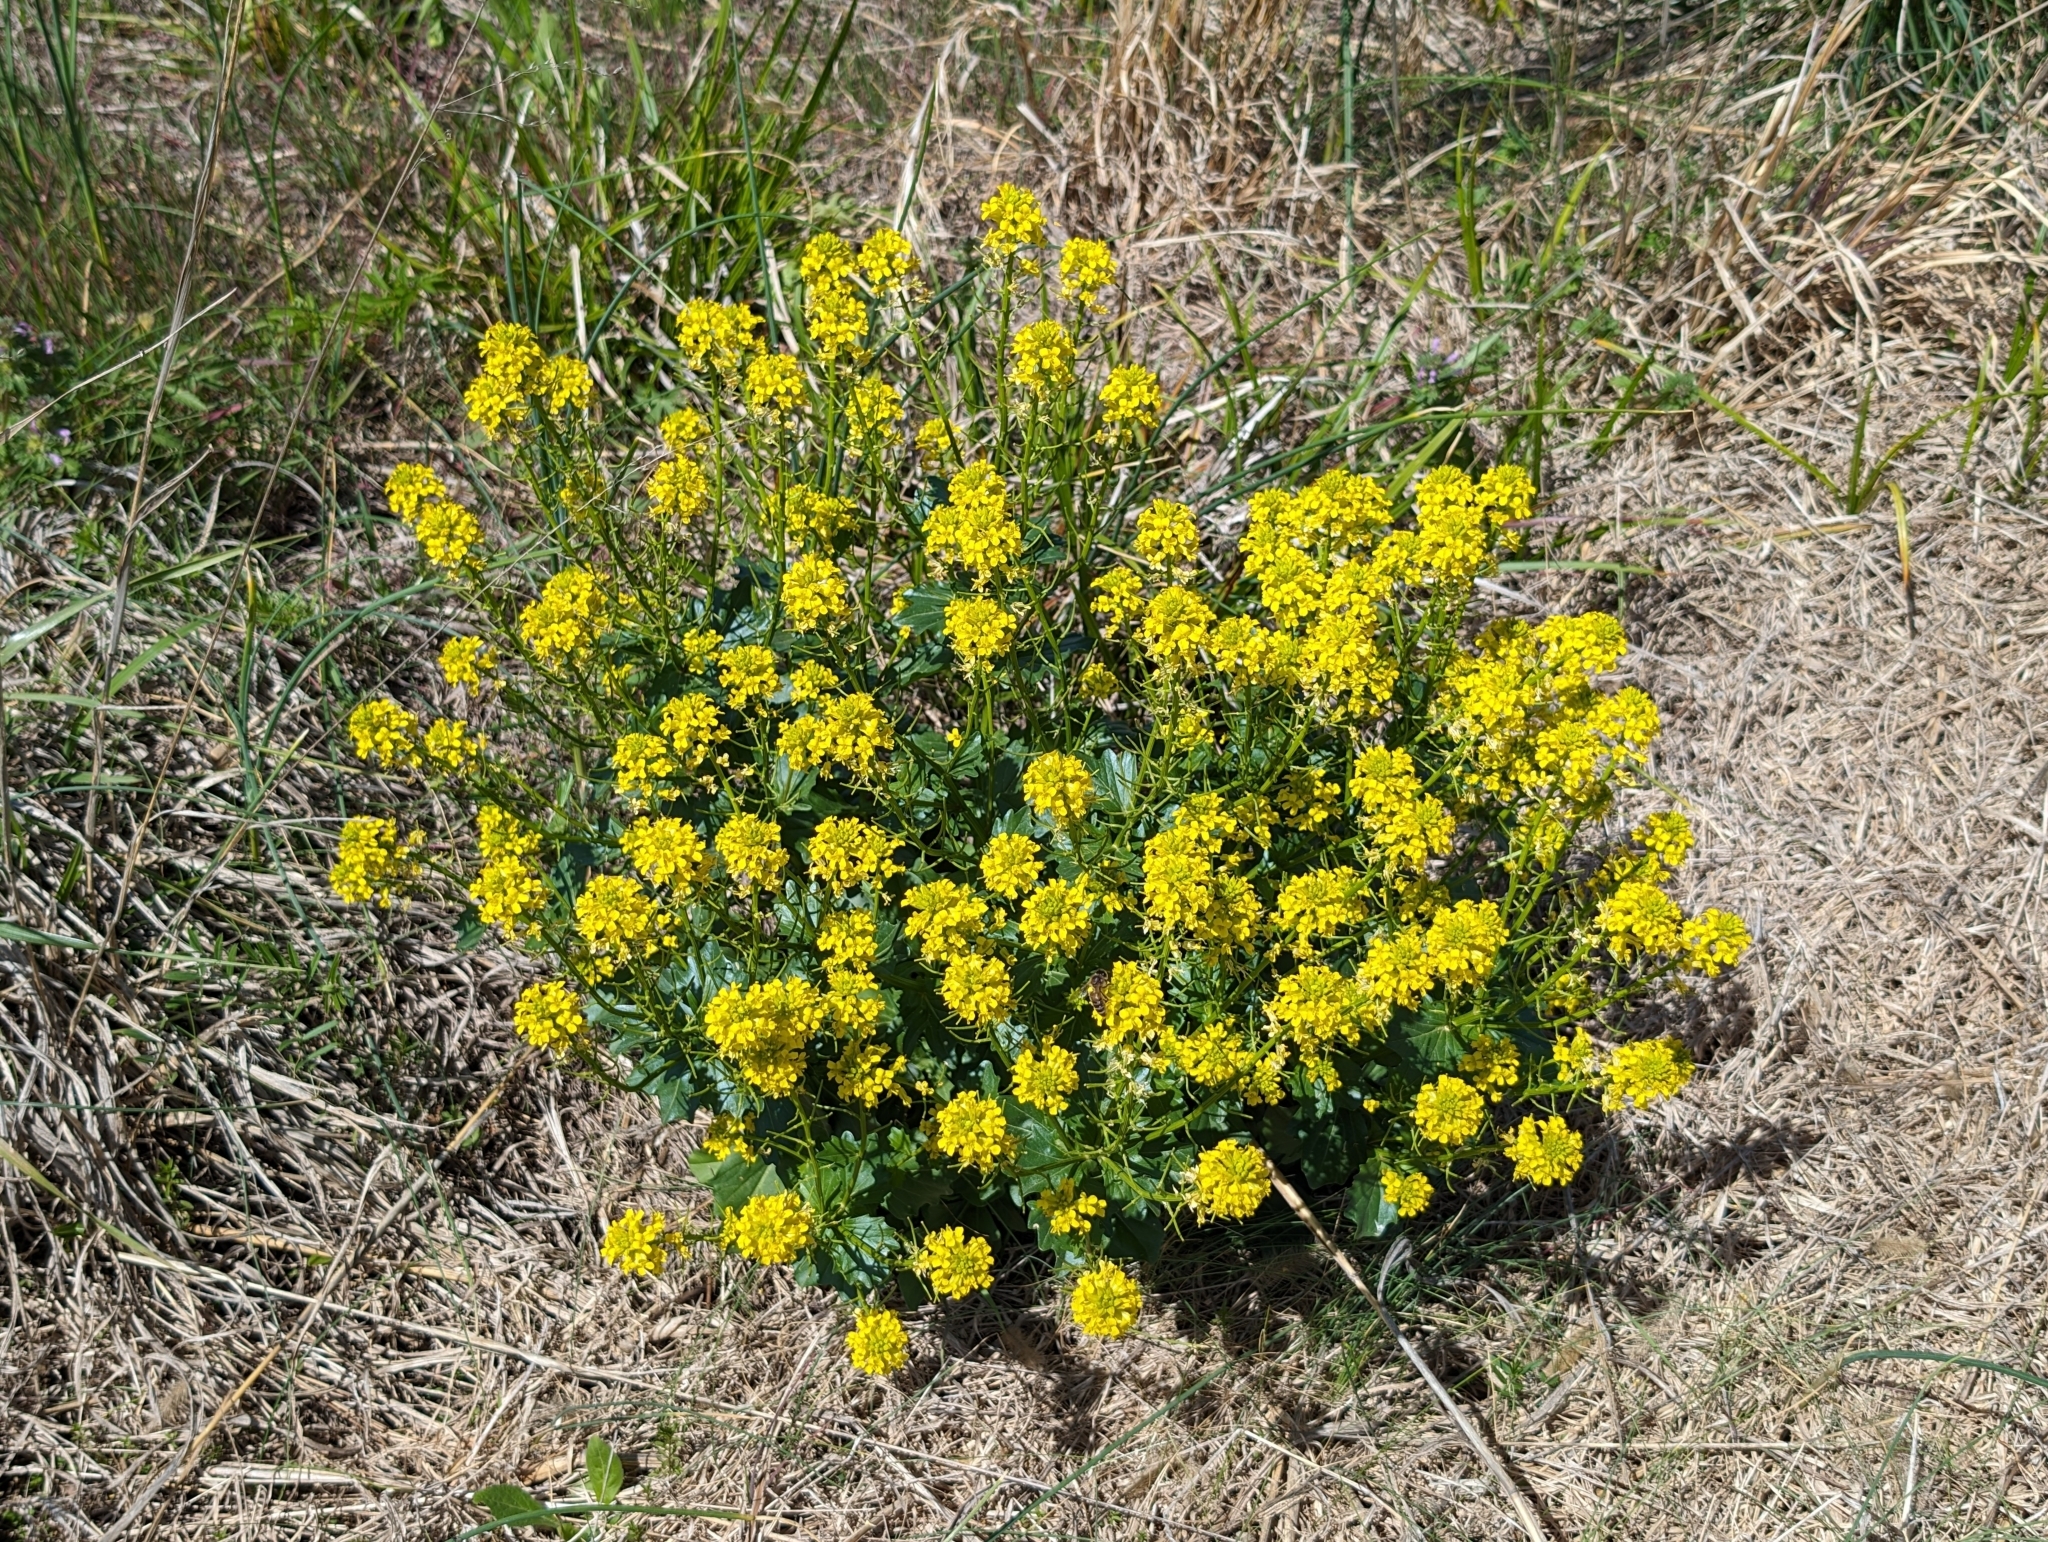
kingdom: Plantae
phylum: Tracheophyta
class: Magnoliopsida
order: Brassicales
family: Brassicaceae
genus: Barbarea
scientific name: Barbarea vulgaris
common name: Cressy-greens
